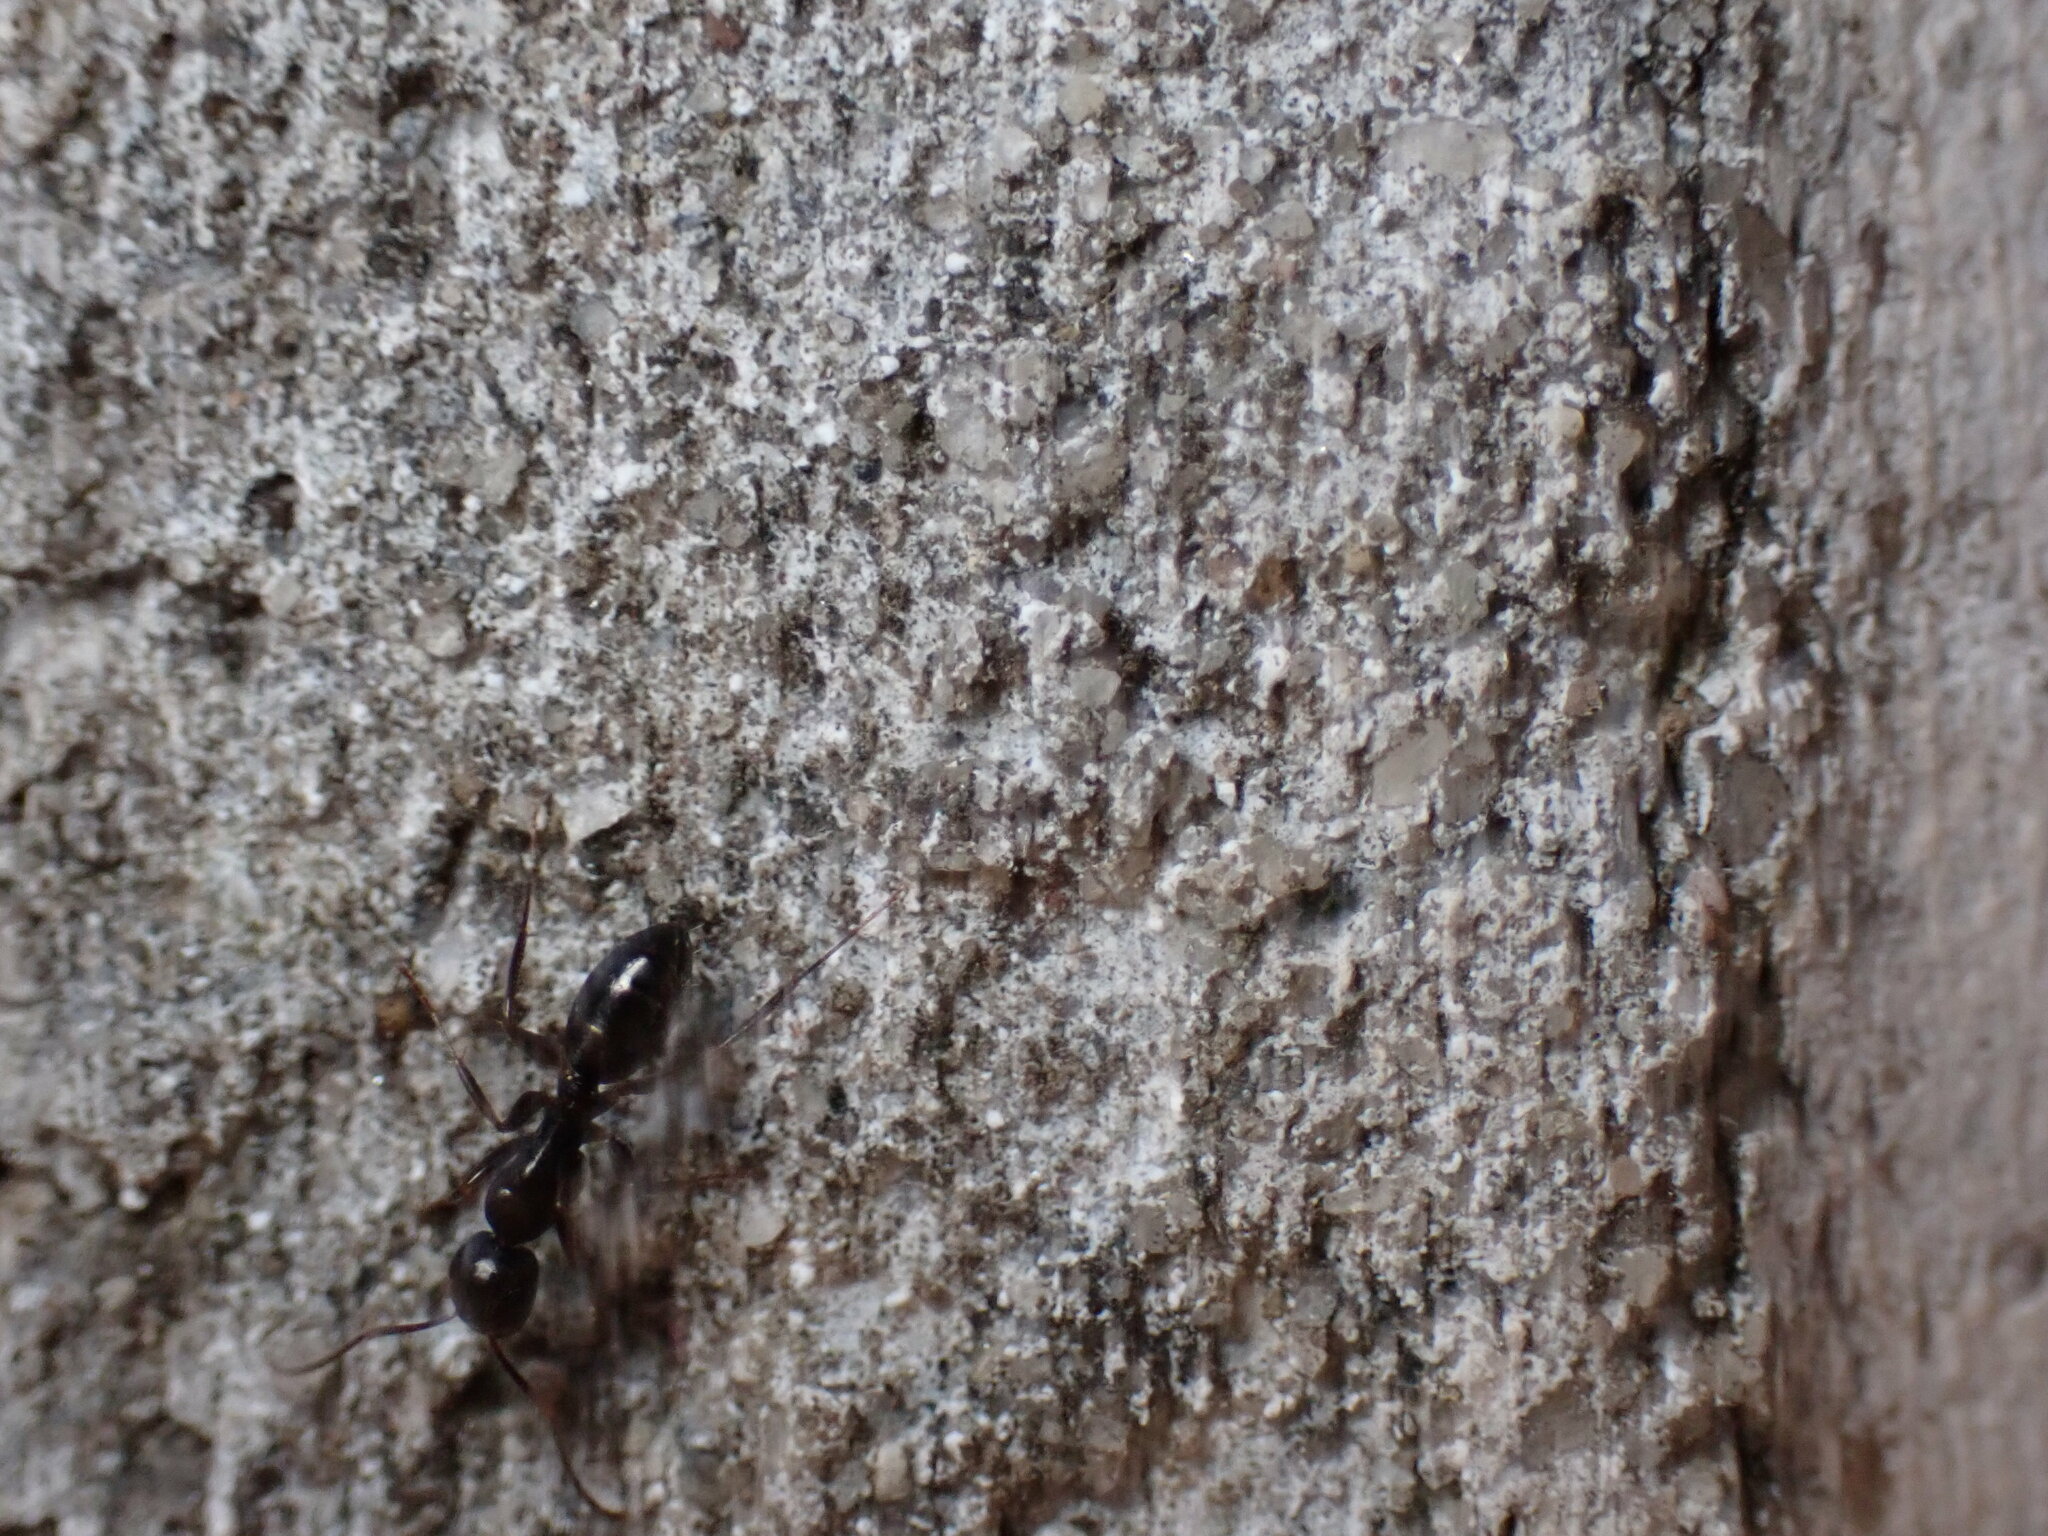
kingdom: Animalia
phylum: Arthropoda
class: Insecta
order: Hymenoptera
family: Formicidae
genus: Myrmentoma
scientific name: Myrmentoma
